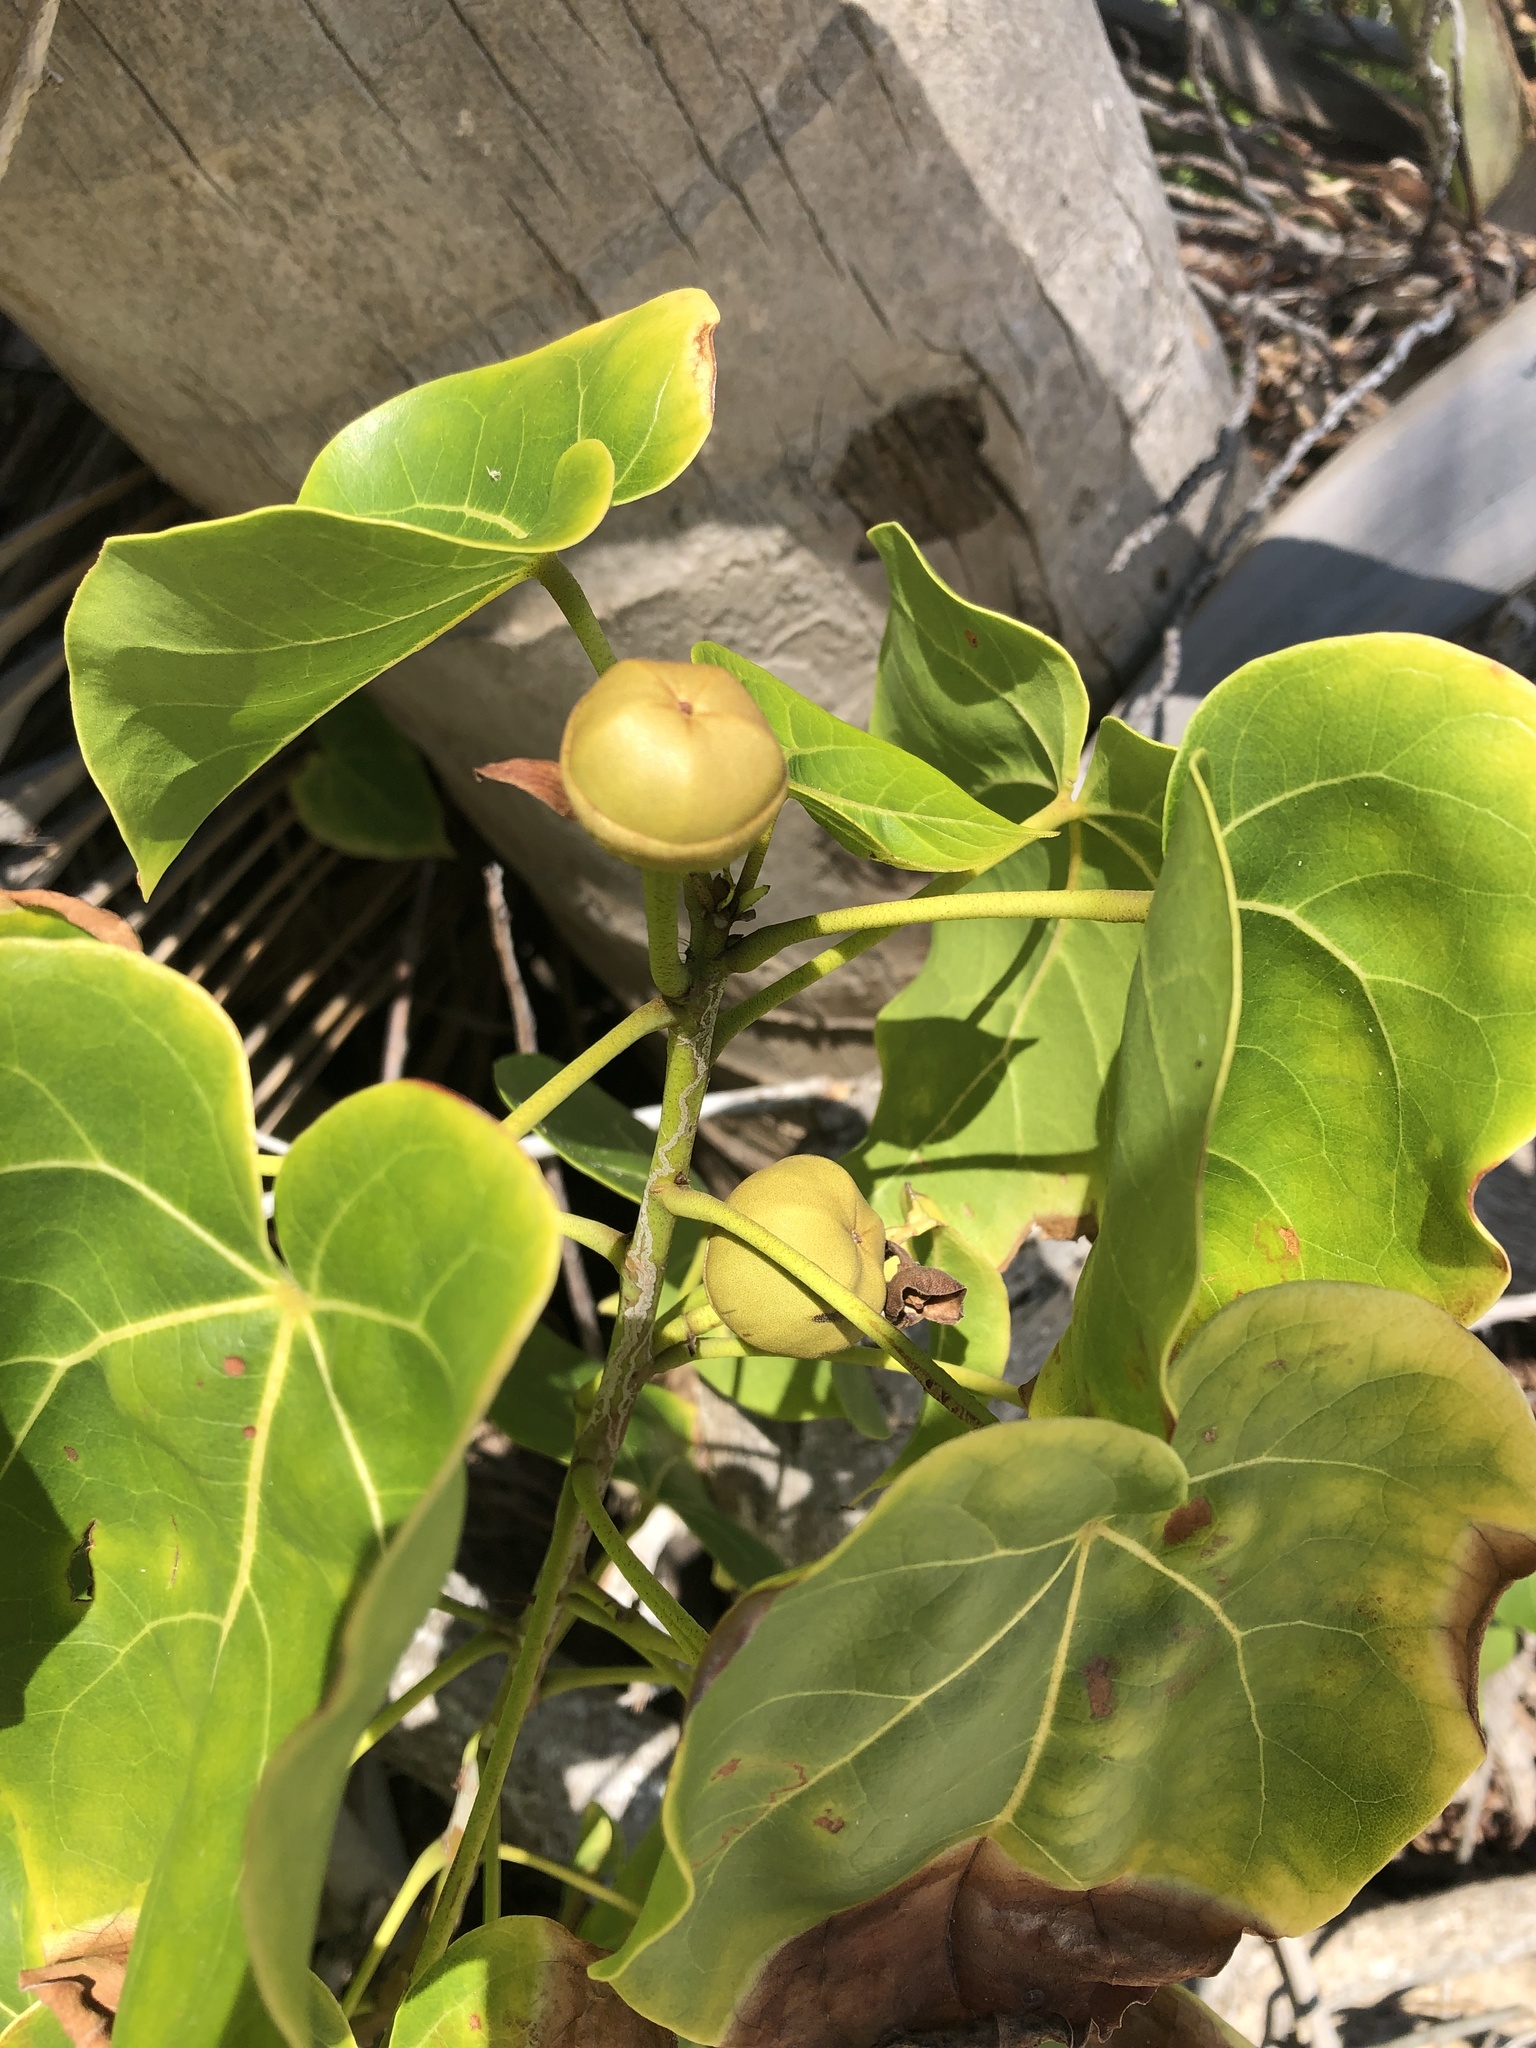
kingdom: Plantae
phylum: Tracheophyta
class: Magnoliopsida
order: Malvales
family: Malvaceae
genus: Thespesia
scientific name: Thespesia populnea
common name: Seaside mahoe
